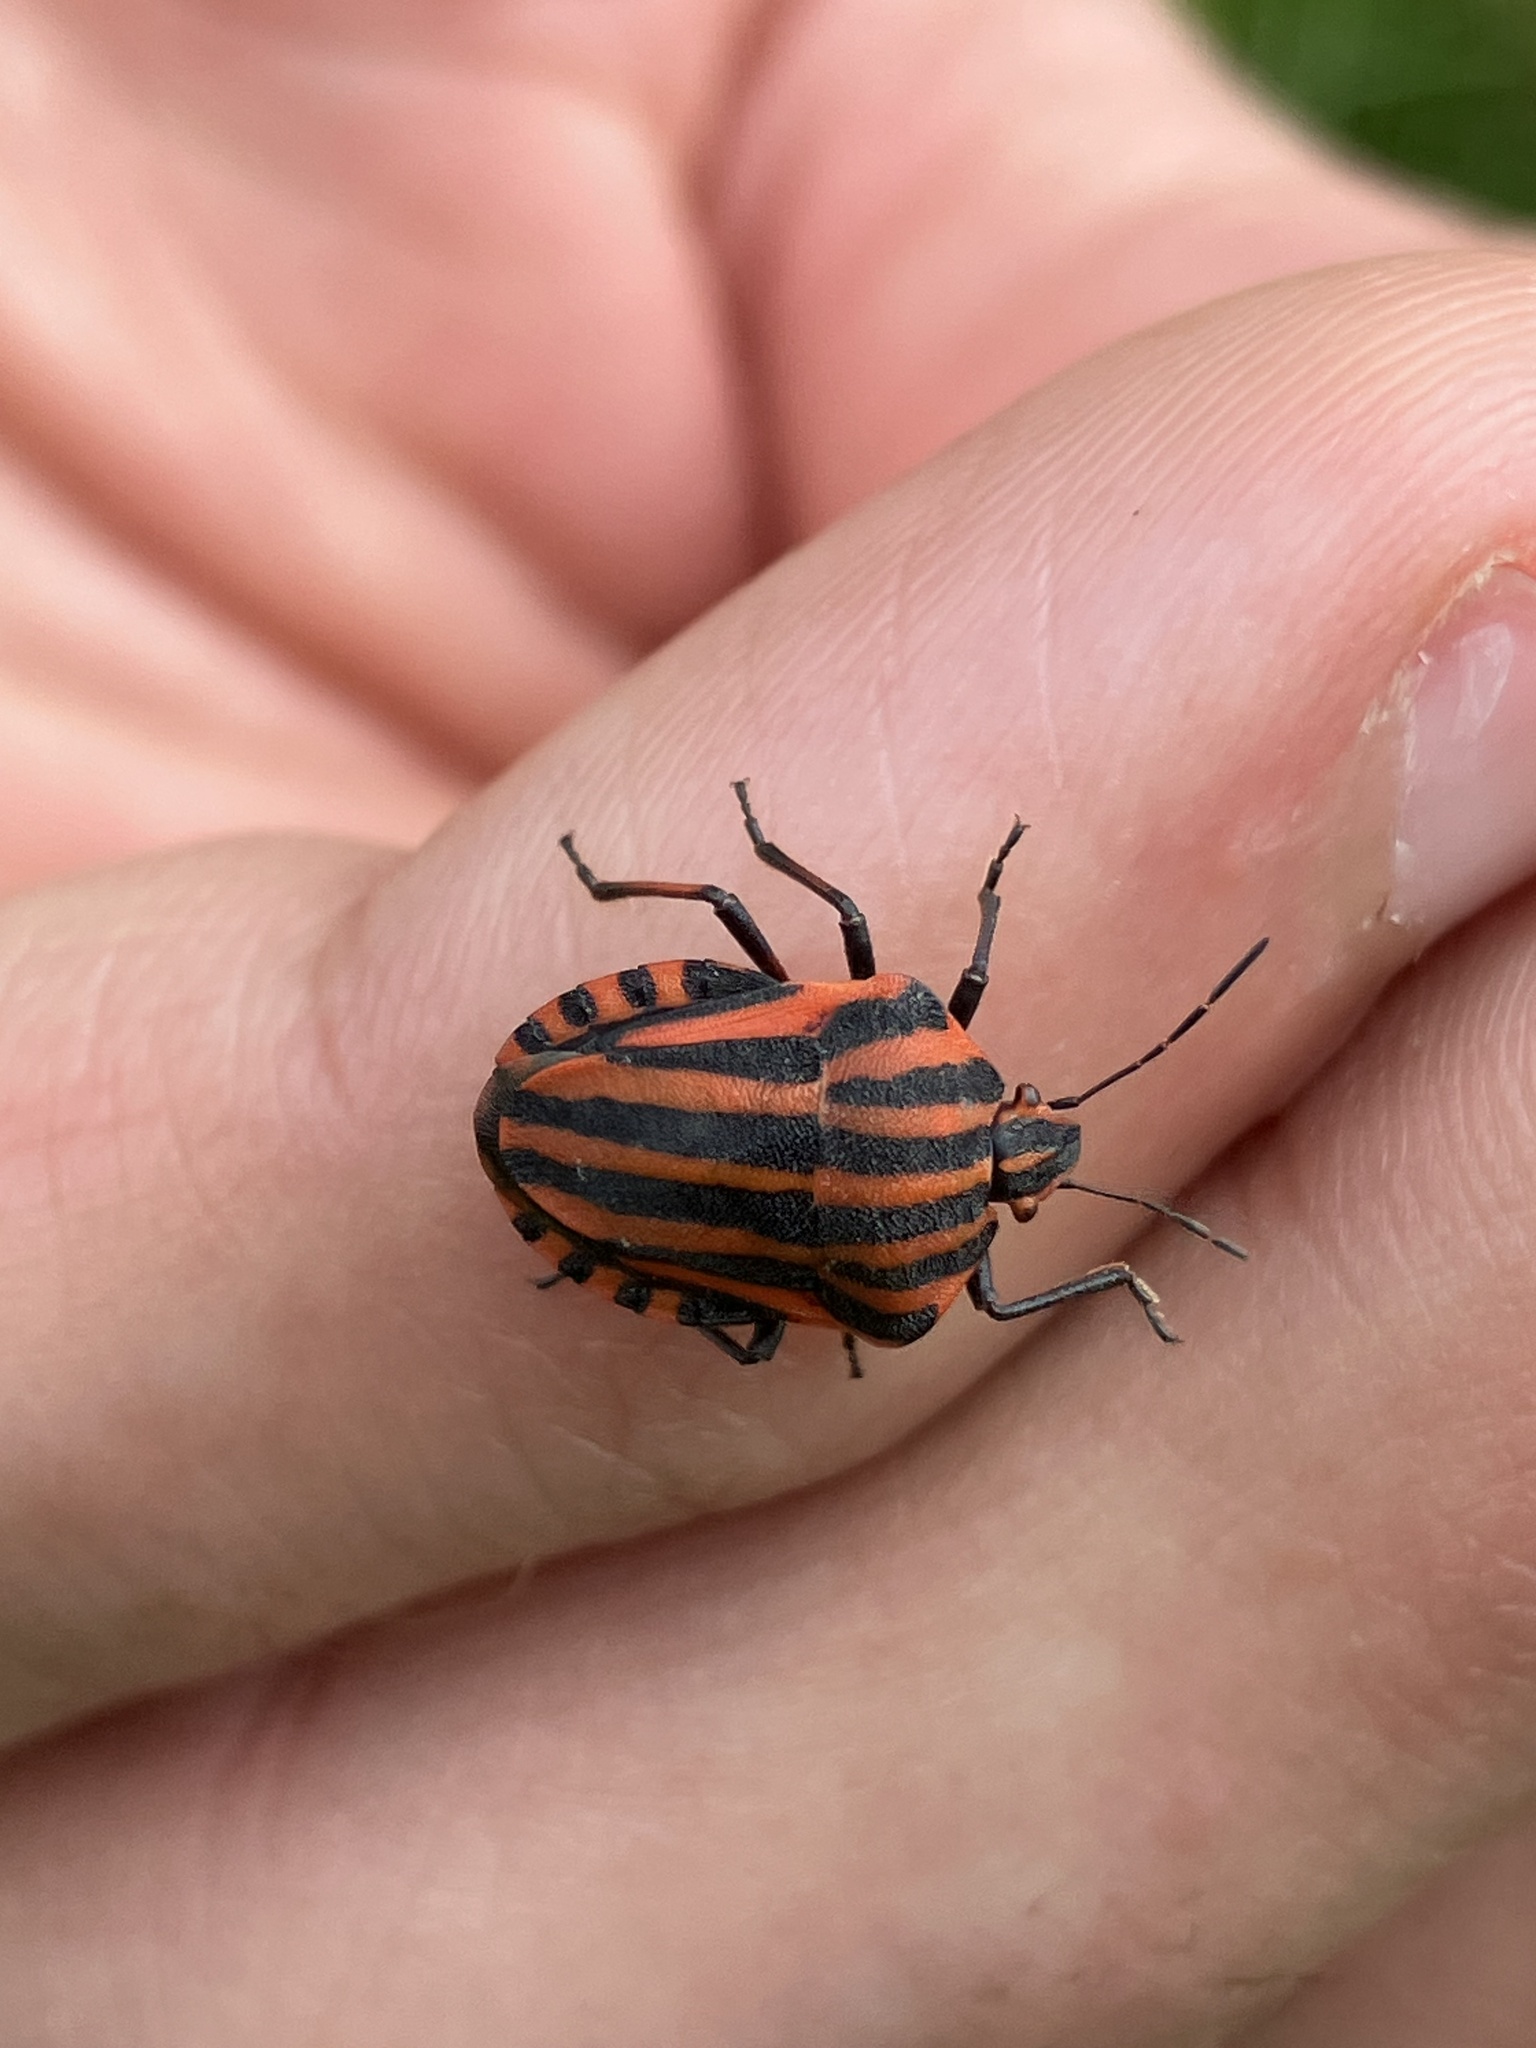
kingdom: Animalia
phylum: Arthropoda
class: Insecta
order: Hemiptera
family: Pentatomidae
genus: Graphosoma
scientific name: Graphosoma italicum
